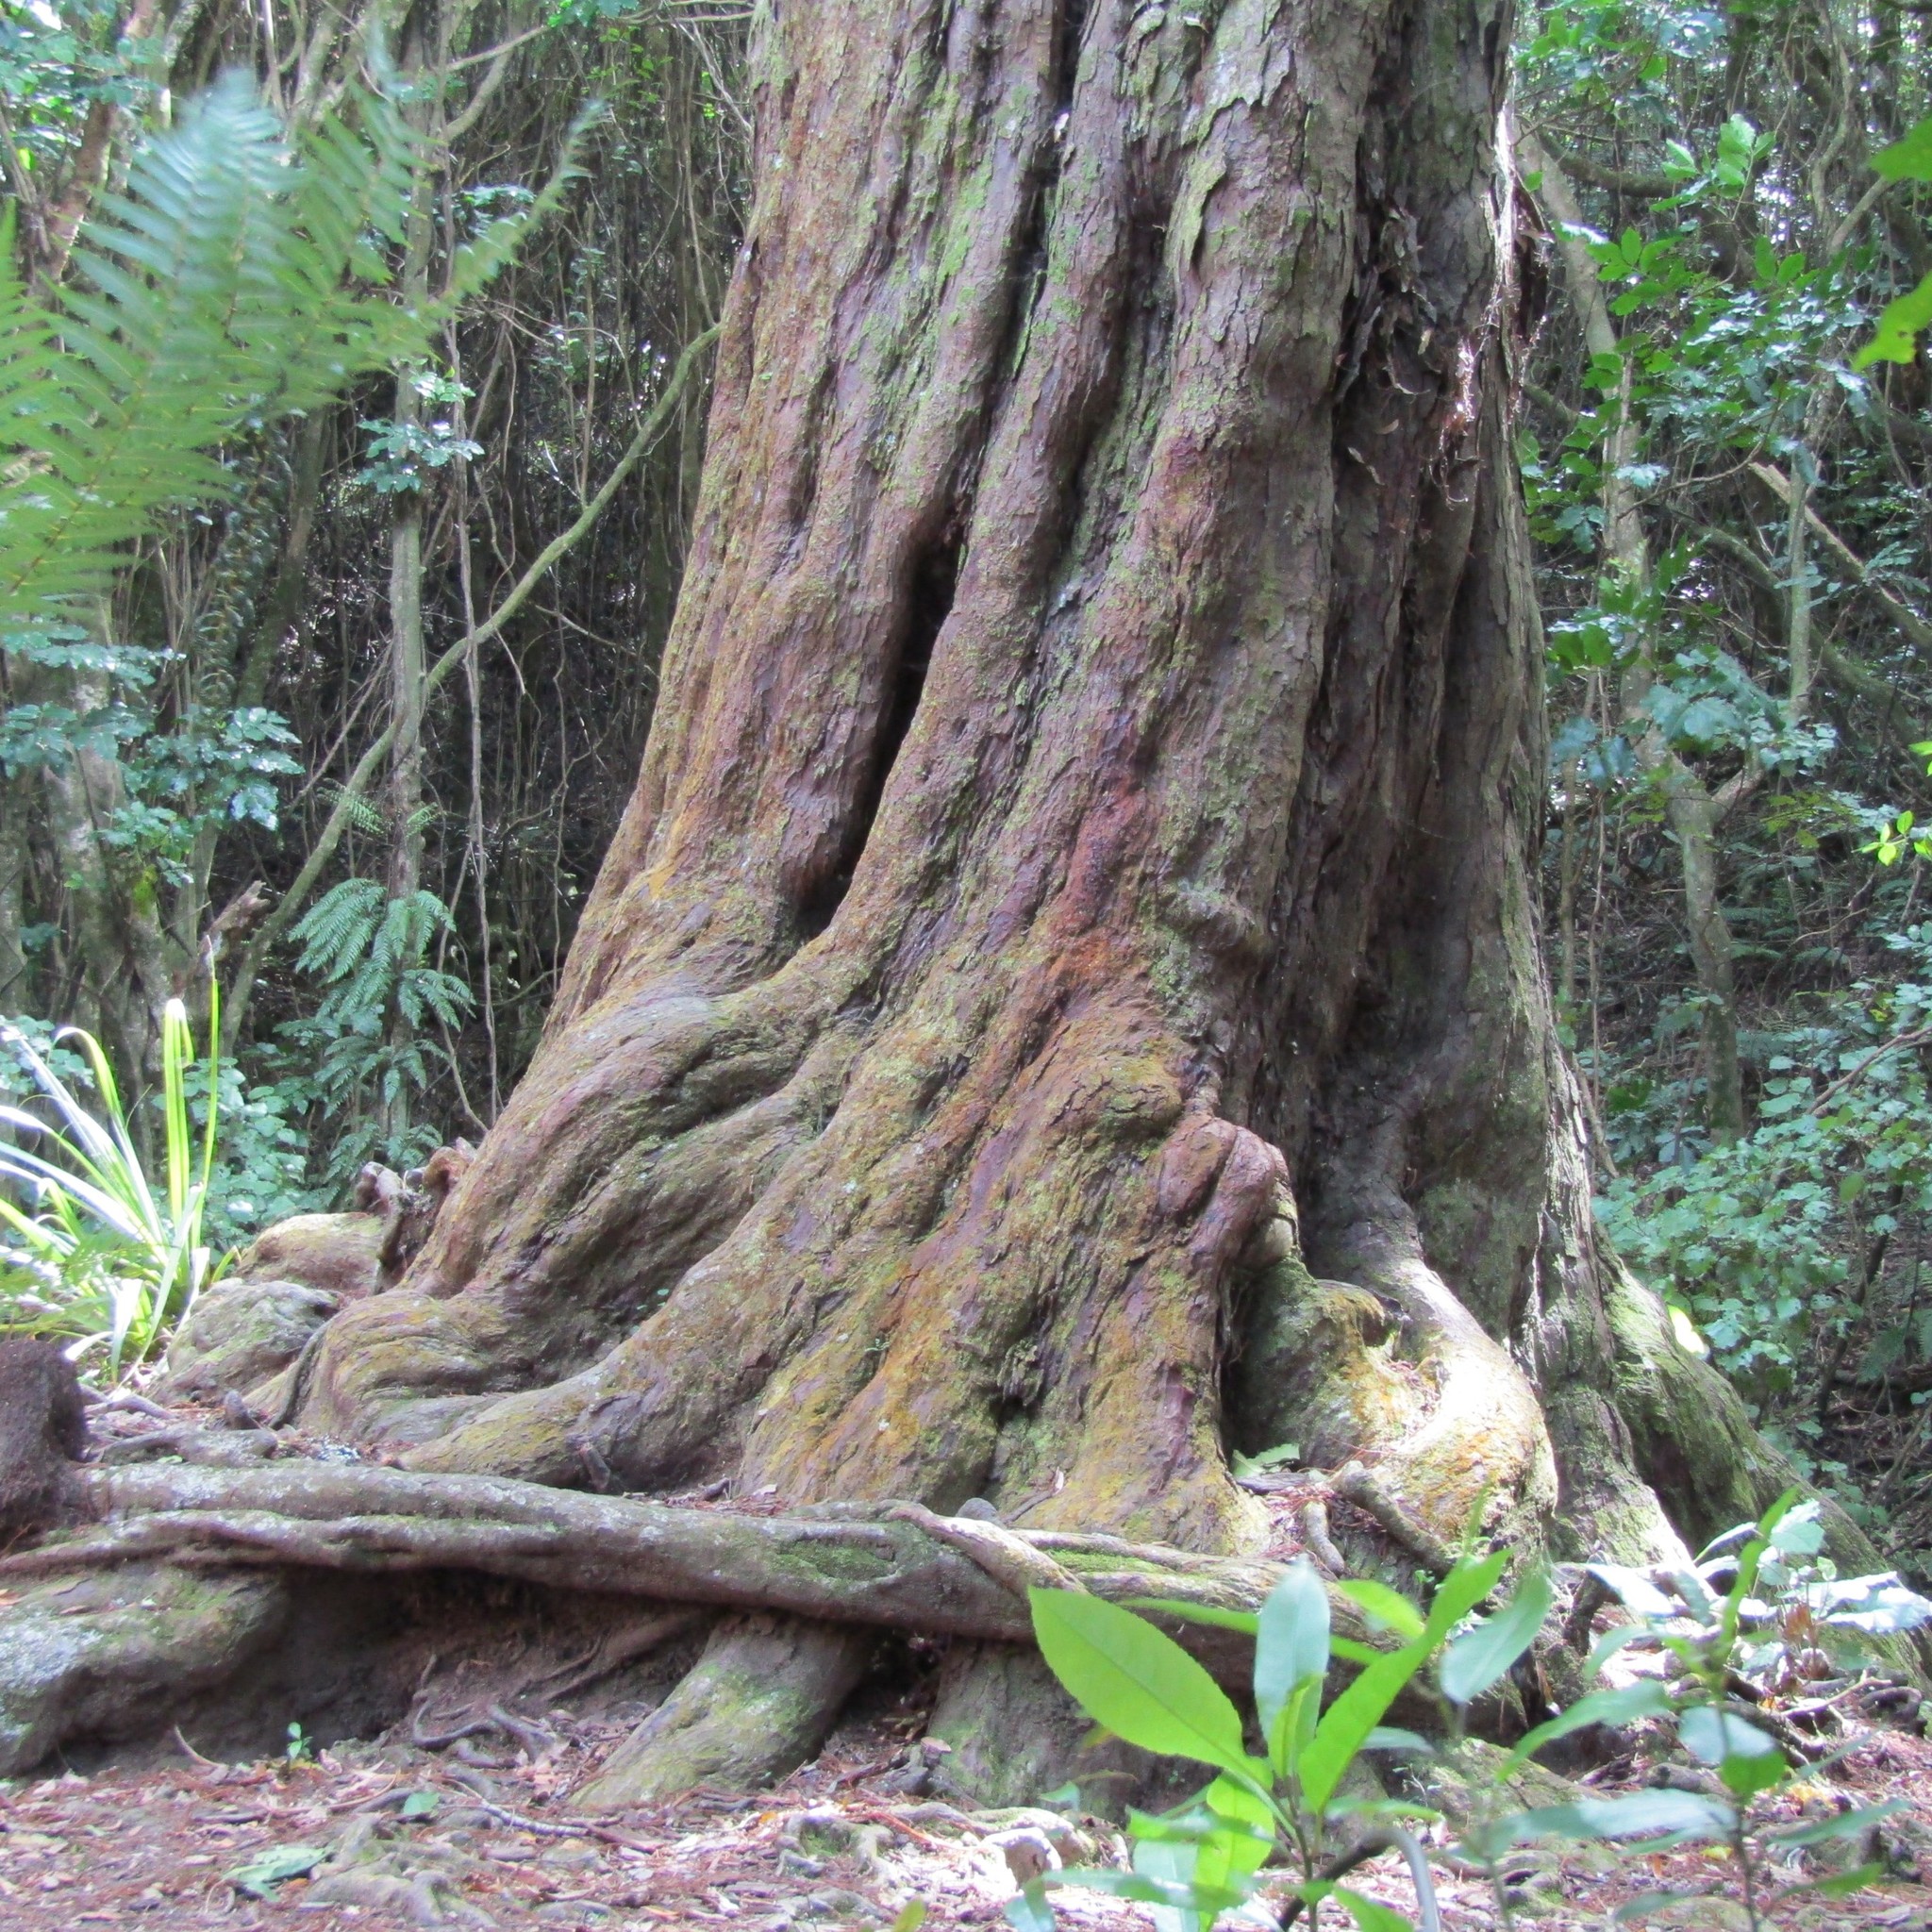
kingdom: Plantae
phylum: Tracheophyta
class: Pinopsida
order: Pinales
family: Podocarpaceae
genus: Dacrydium
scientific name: Dacrydium cupressinum
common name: Red pine
